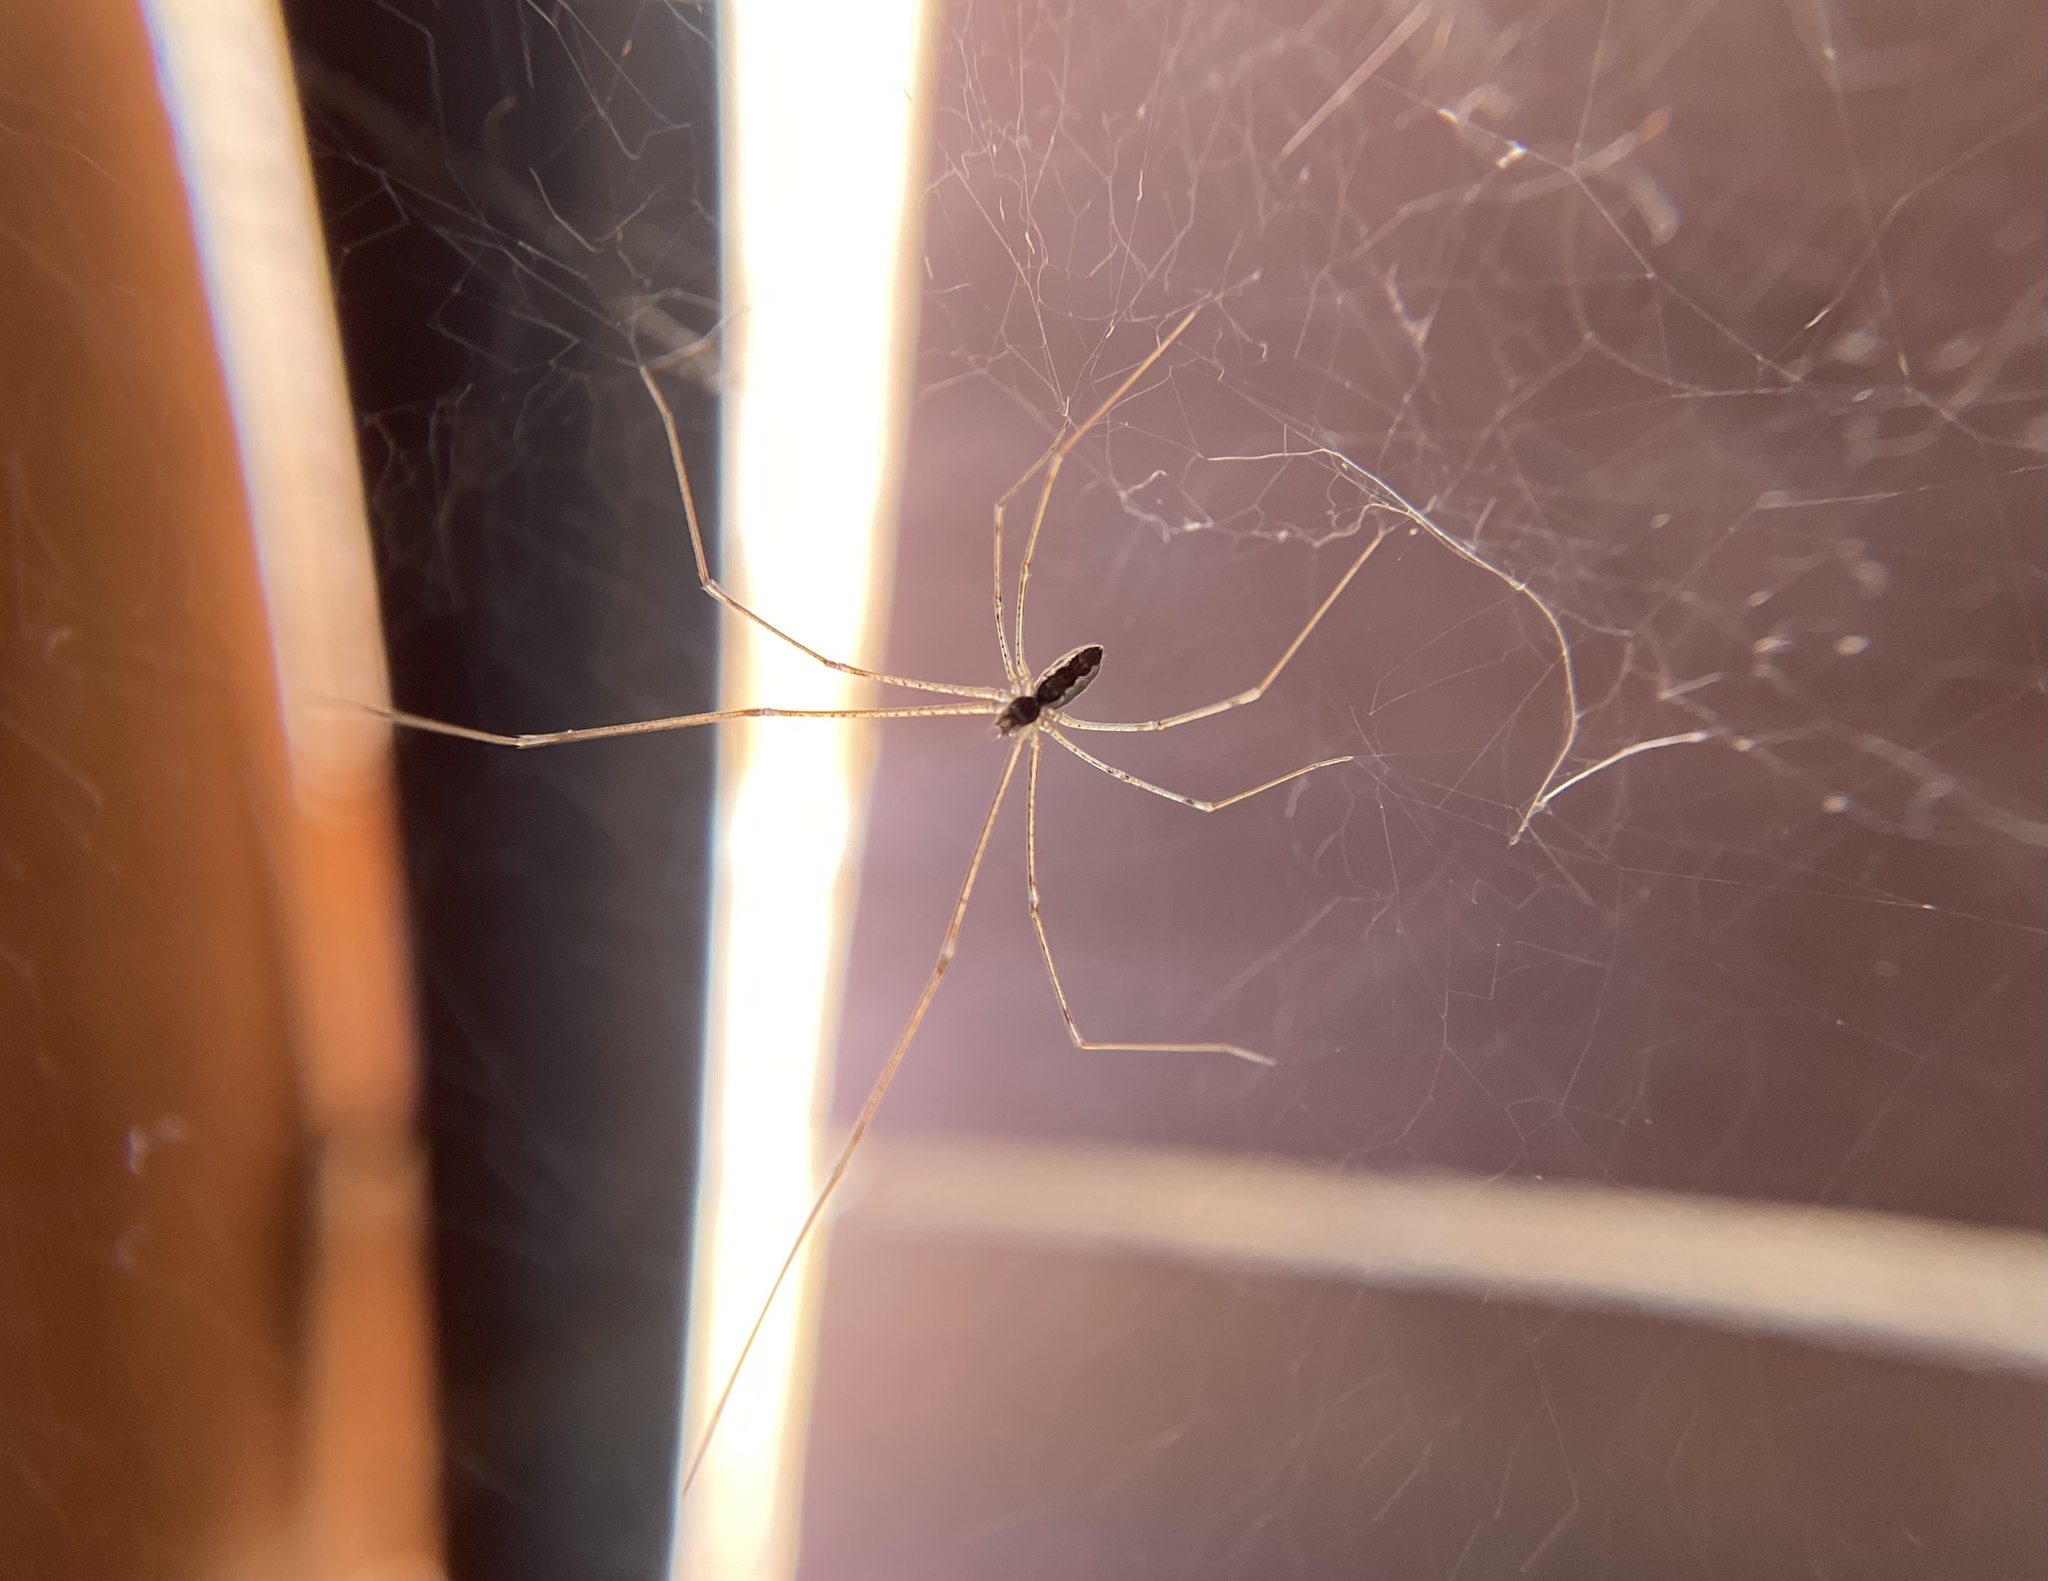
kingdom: Animalia
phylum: Arthropoda
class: Arachnida
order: Araneae
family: Pholcidae
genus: Holocnemus
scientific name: Holocnemus pluchei
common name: Marbled cellar spider
